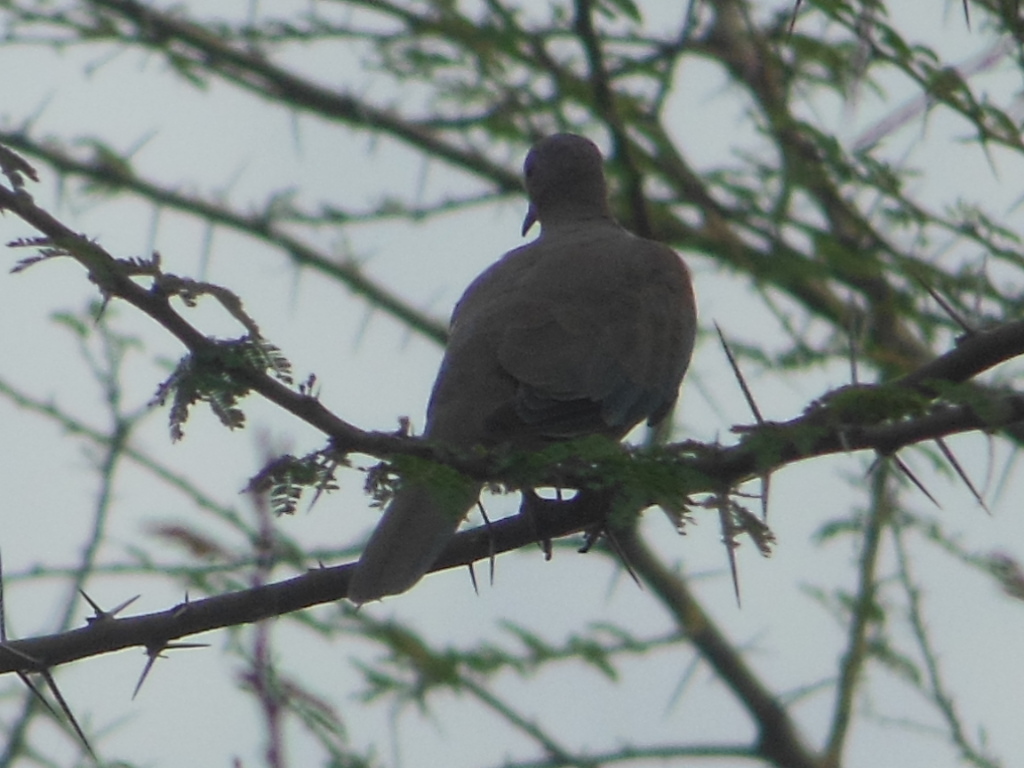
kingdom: Animalia
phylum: Chordata
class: Aves
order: Columbiformes
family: Columbidae
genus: Spilopelia
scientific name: Spilopelia senegalensis
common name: Laughing dove
